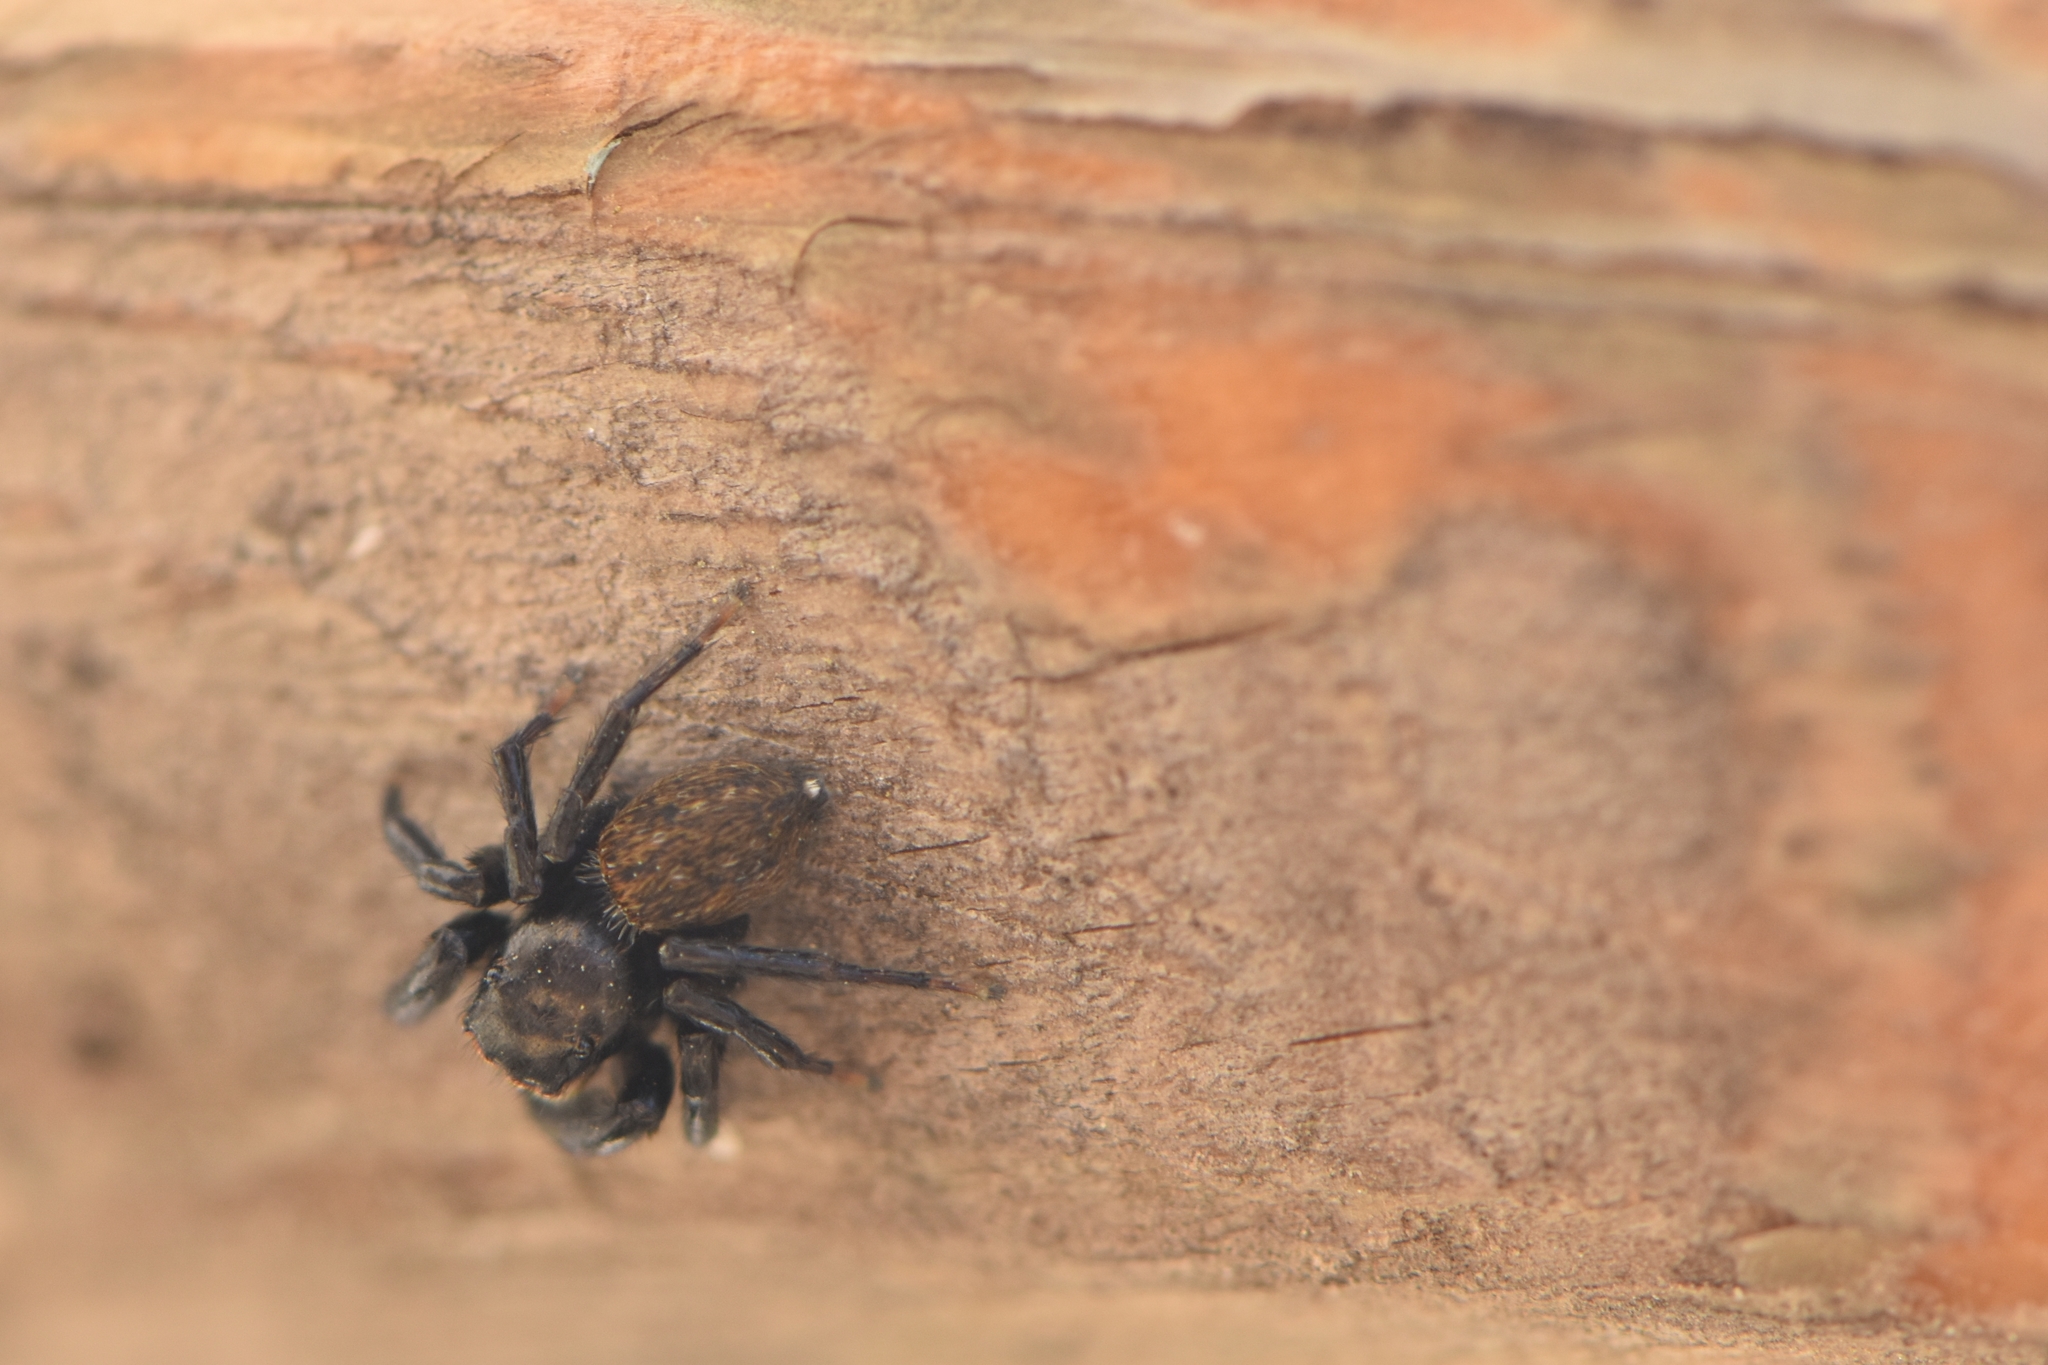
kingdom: Animalia
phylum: Arthropoda
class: Arachnida
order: Araneae
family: Salticidae
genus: Euophrys
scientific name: Euophrys herbigrada
